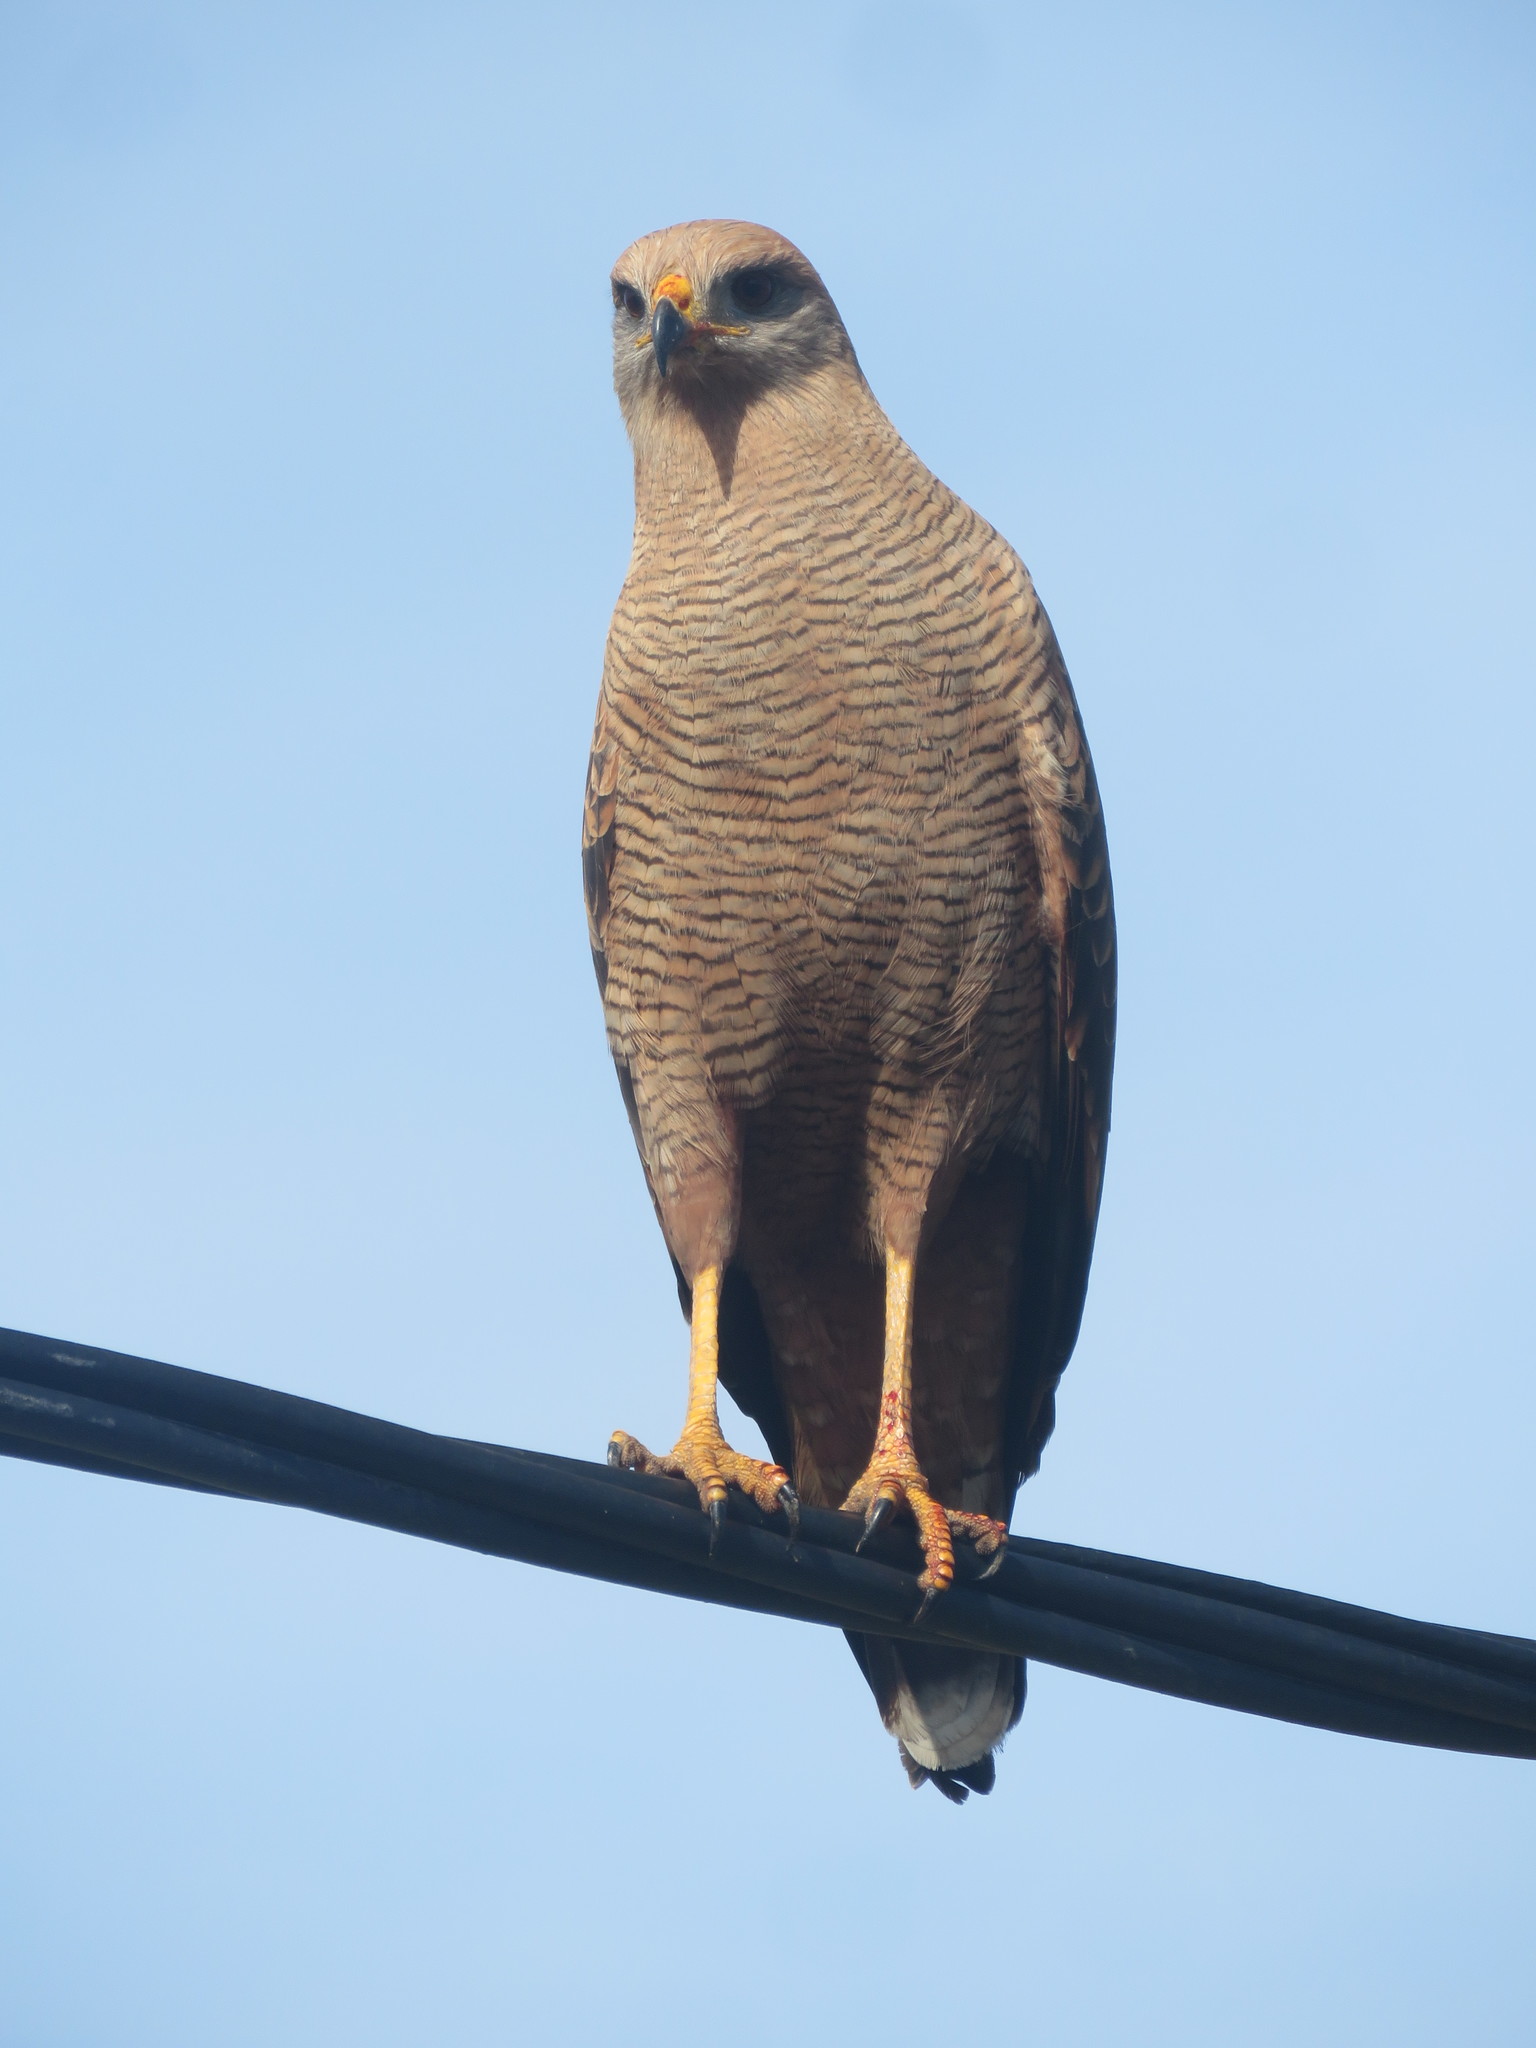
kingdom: Animalia
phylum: Chordata
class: Aves
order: Accipitriformes
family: Accipitridae
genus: Buteogallus
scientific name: Buteogallus meridionalis
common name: Savanna hawk
